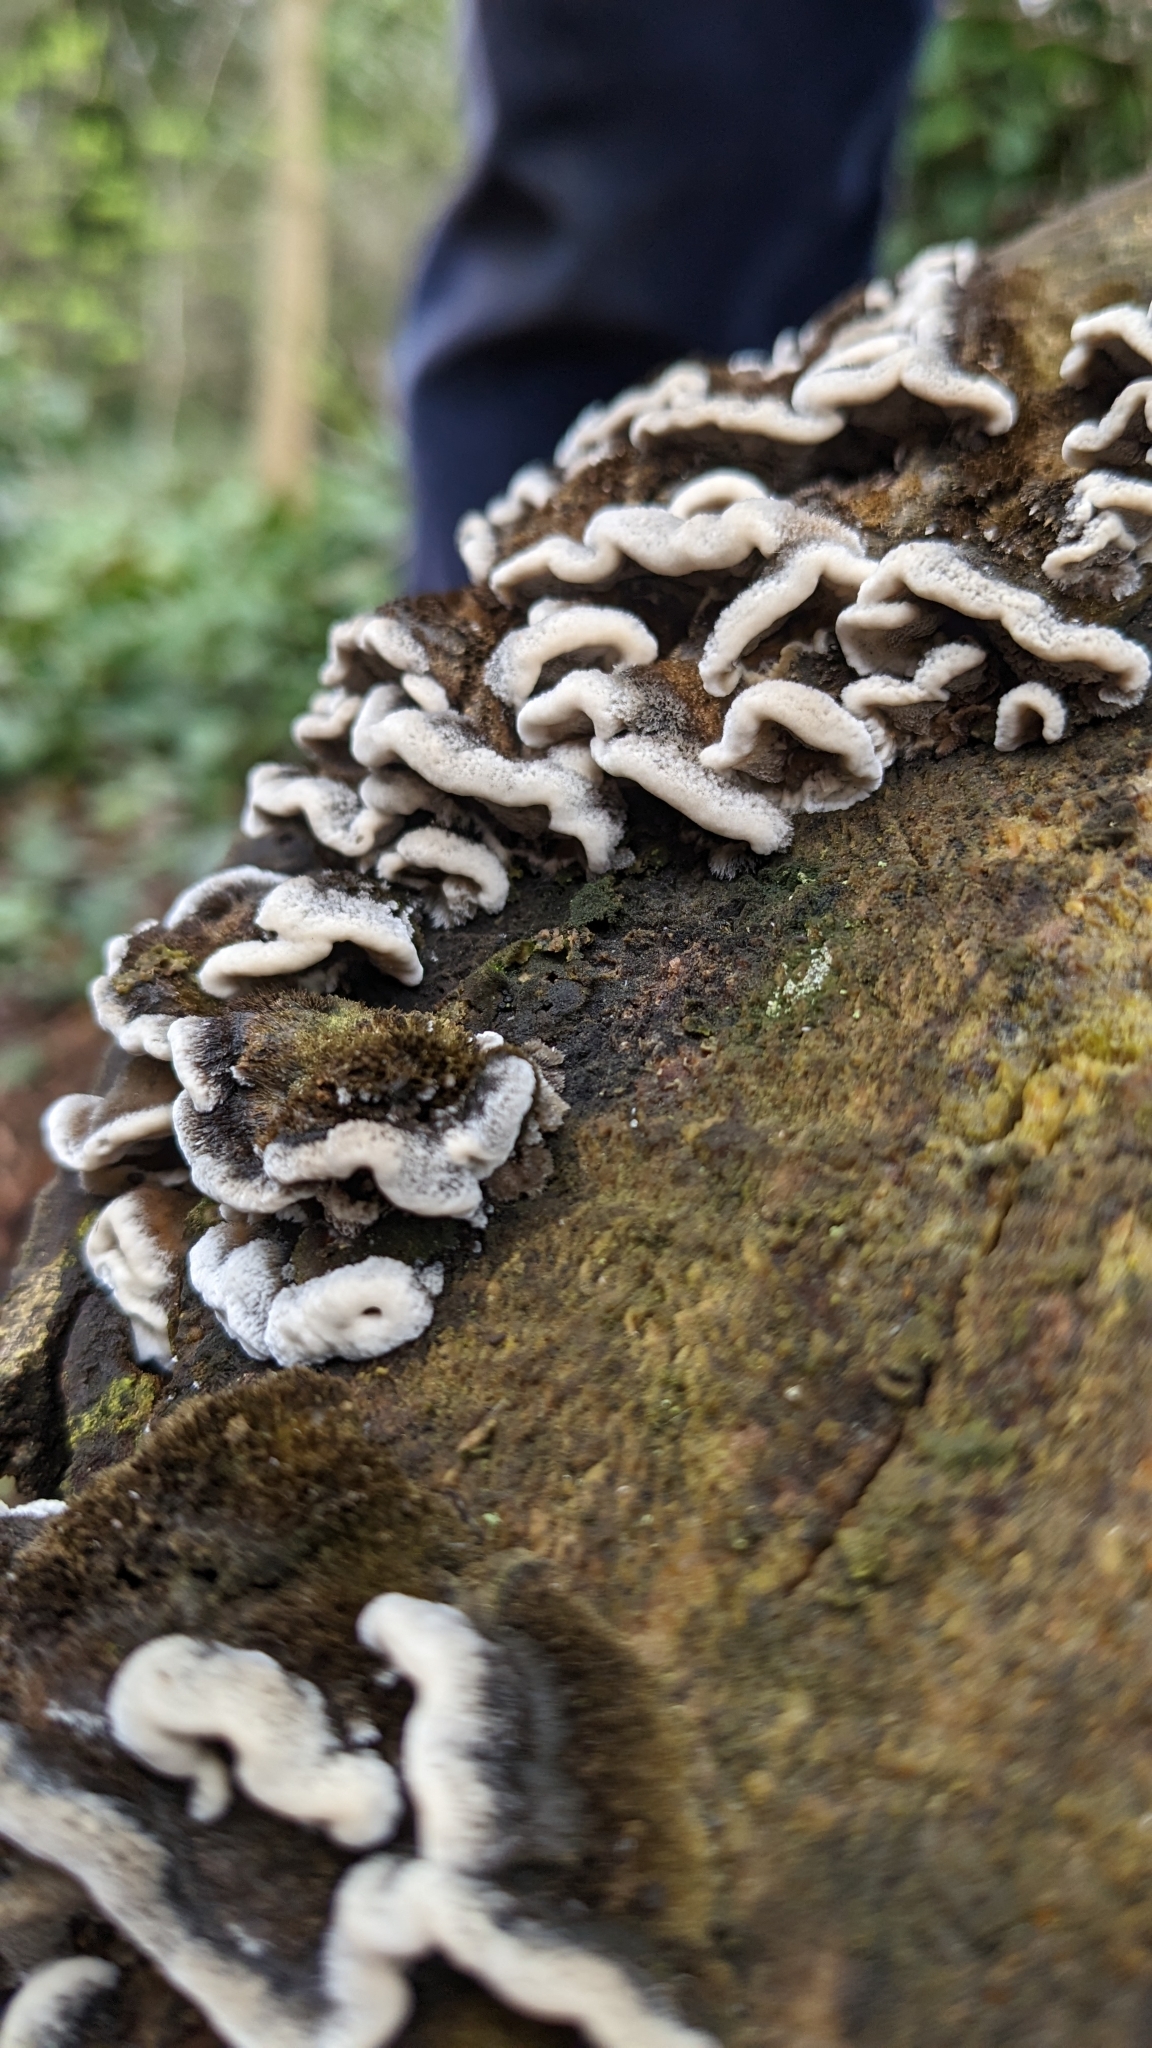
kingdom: Fungi
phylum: Basidiomycota
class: Agaricomycetes
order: Polyporales
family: Phanerochaetaceae
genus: Bjerkandera
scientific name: Bjerkandera adusta
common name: Smoky bracket
